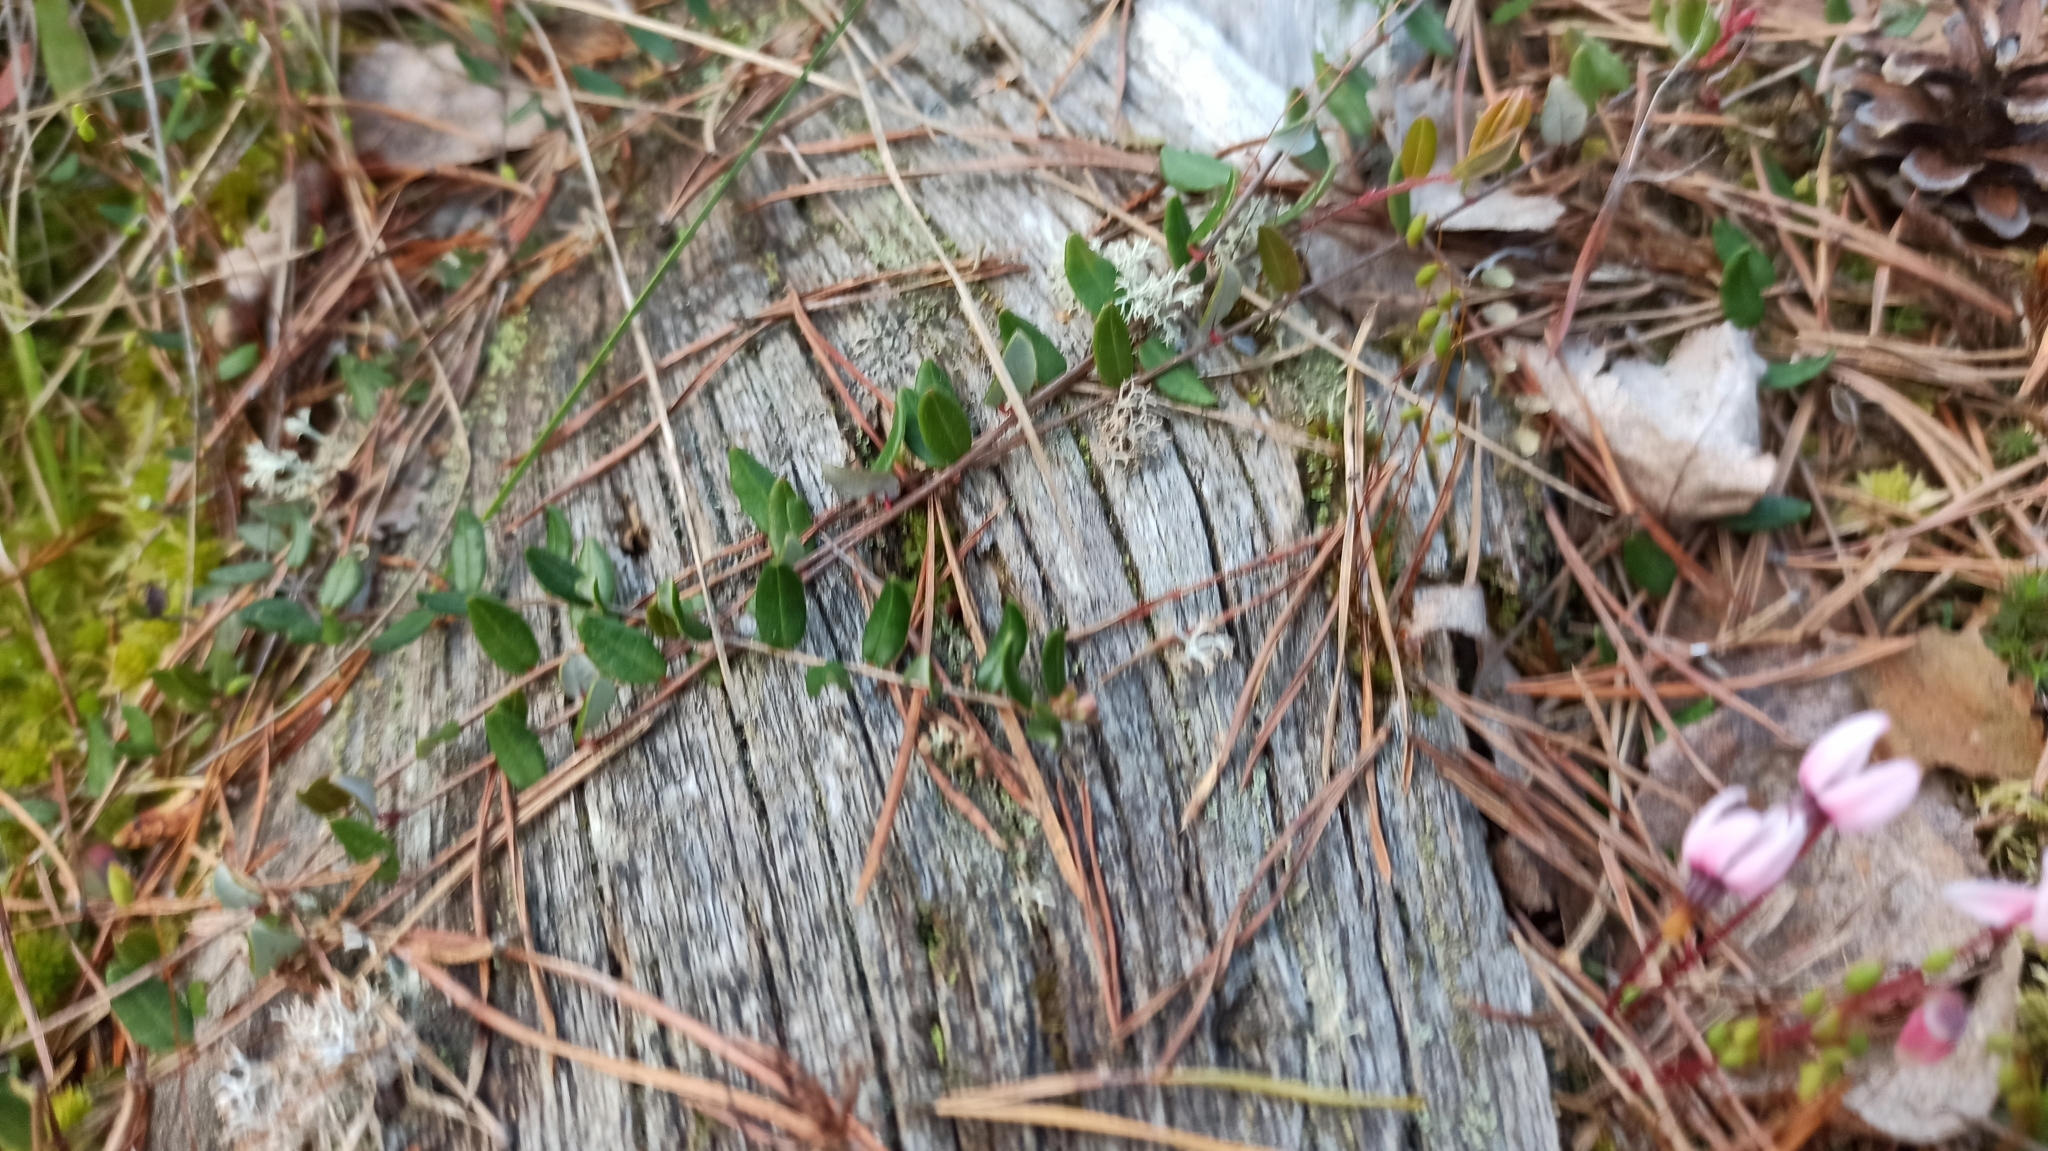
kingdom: Plantae
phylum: Tracheophyta
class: Magnoliopsida
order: Ericales
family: Ericaceae
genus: Vaccinium
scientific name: Vaccinium oxycoccos
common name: Cranberry
